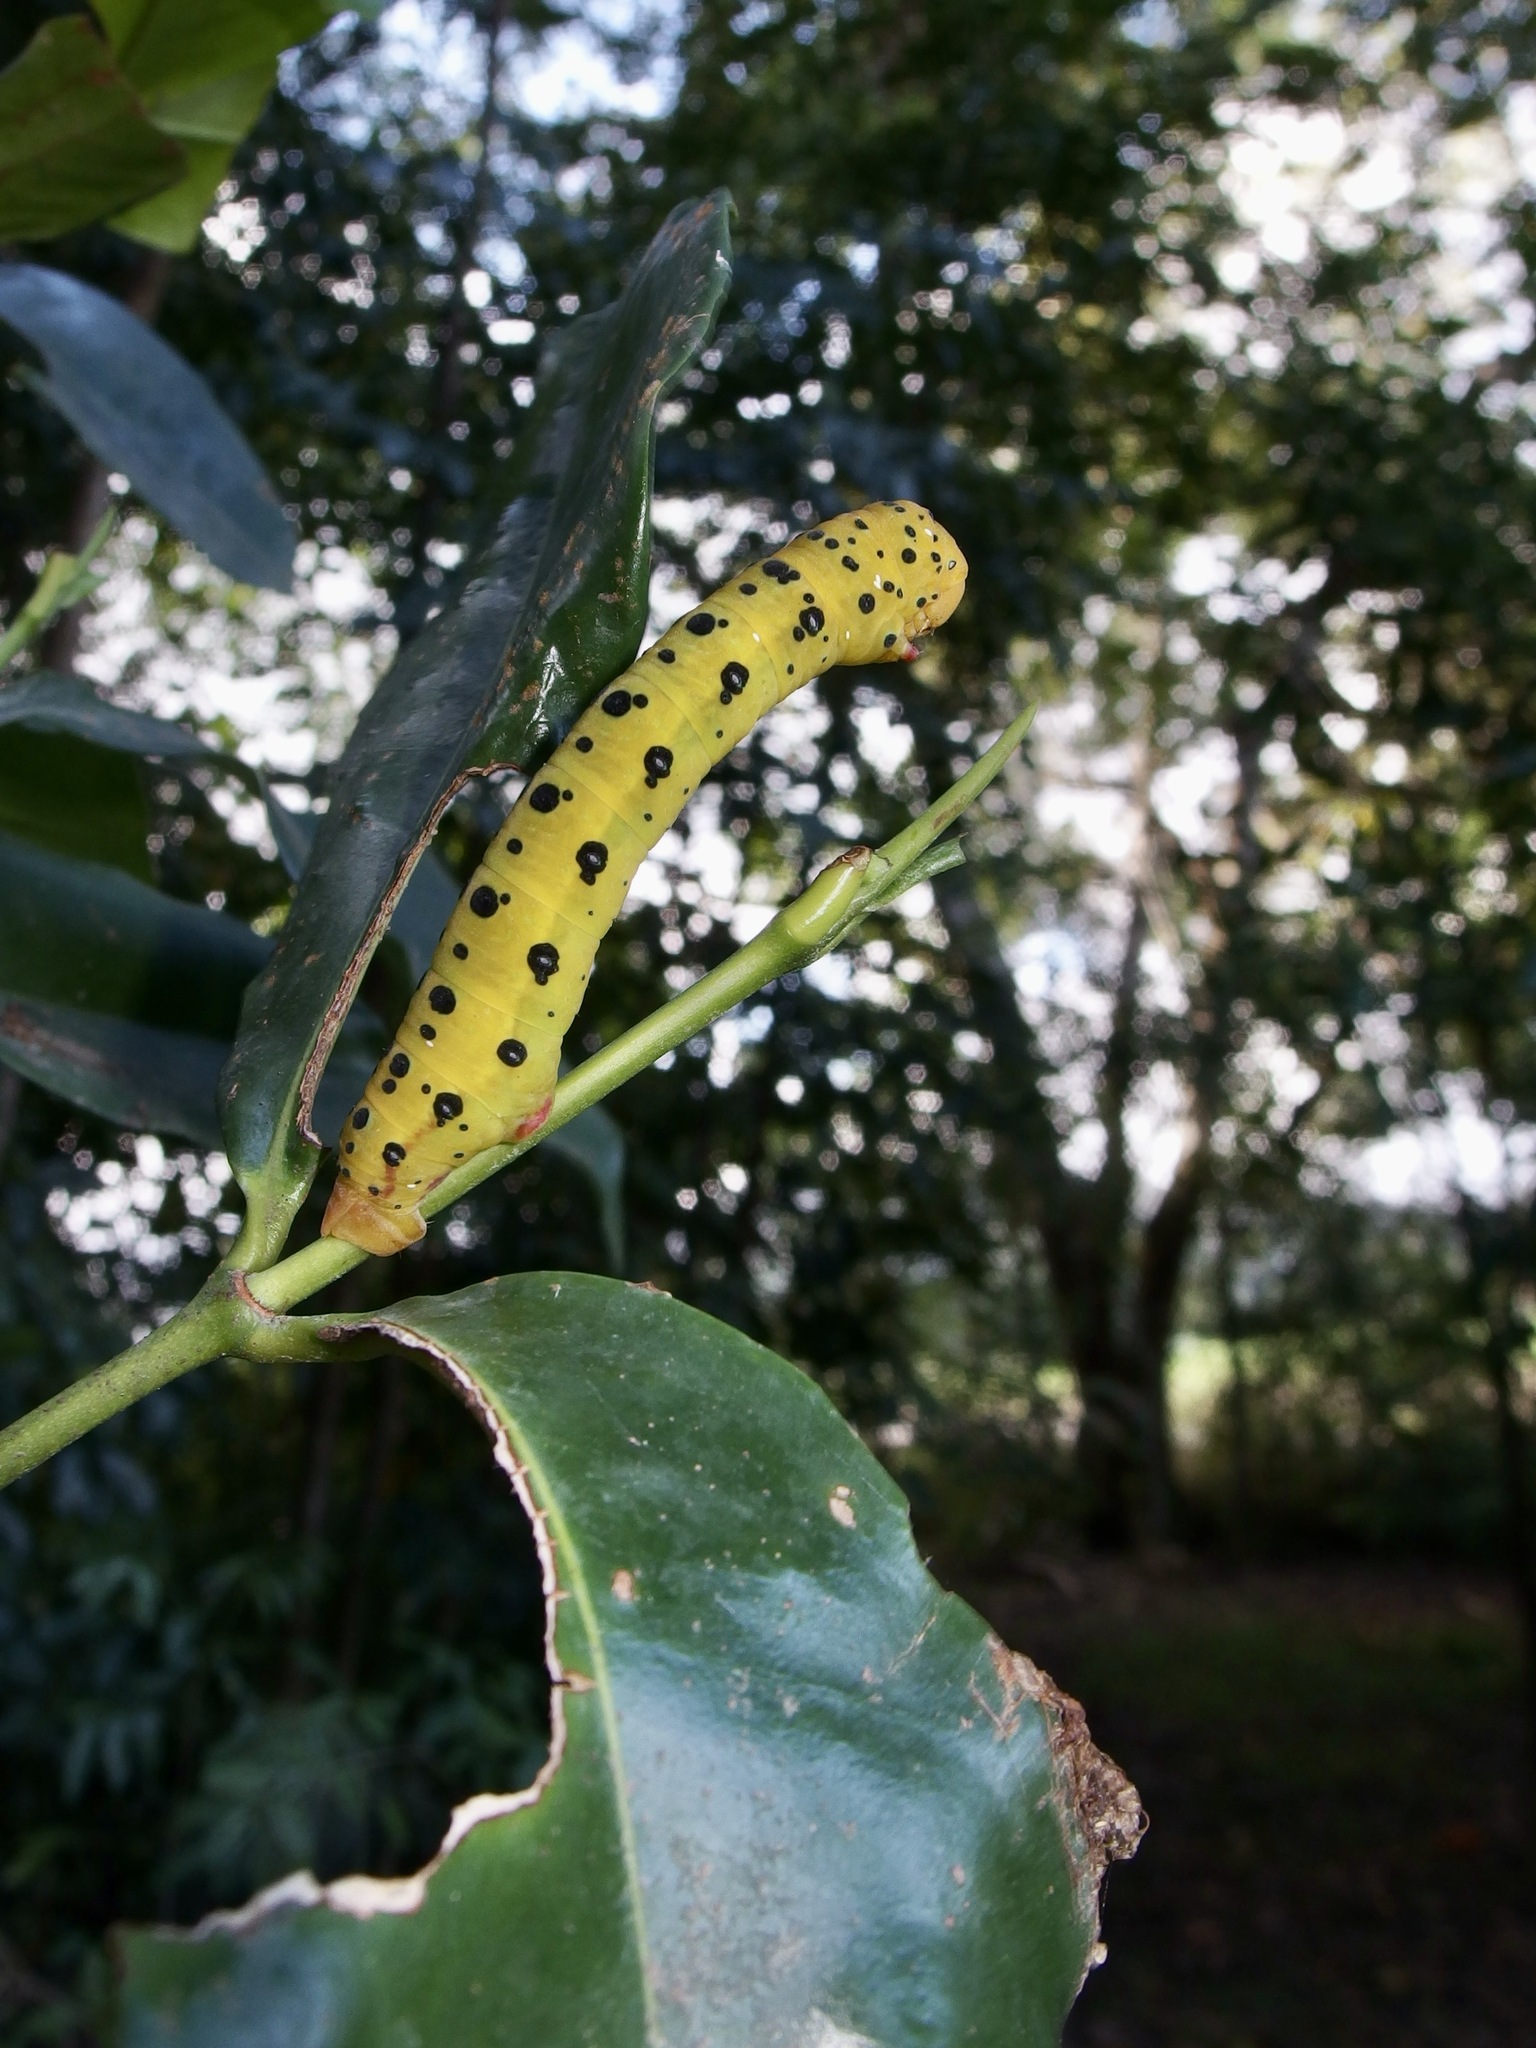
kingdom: Animalia
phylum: Arthropoda
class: Insecta
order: Lepidoptera
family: Geometridae
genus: Dysphania
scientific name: Dysphania numana
